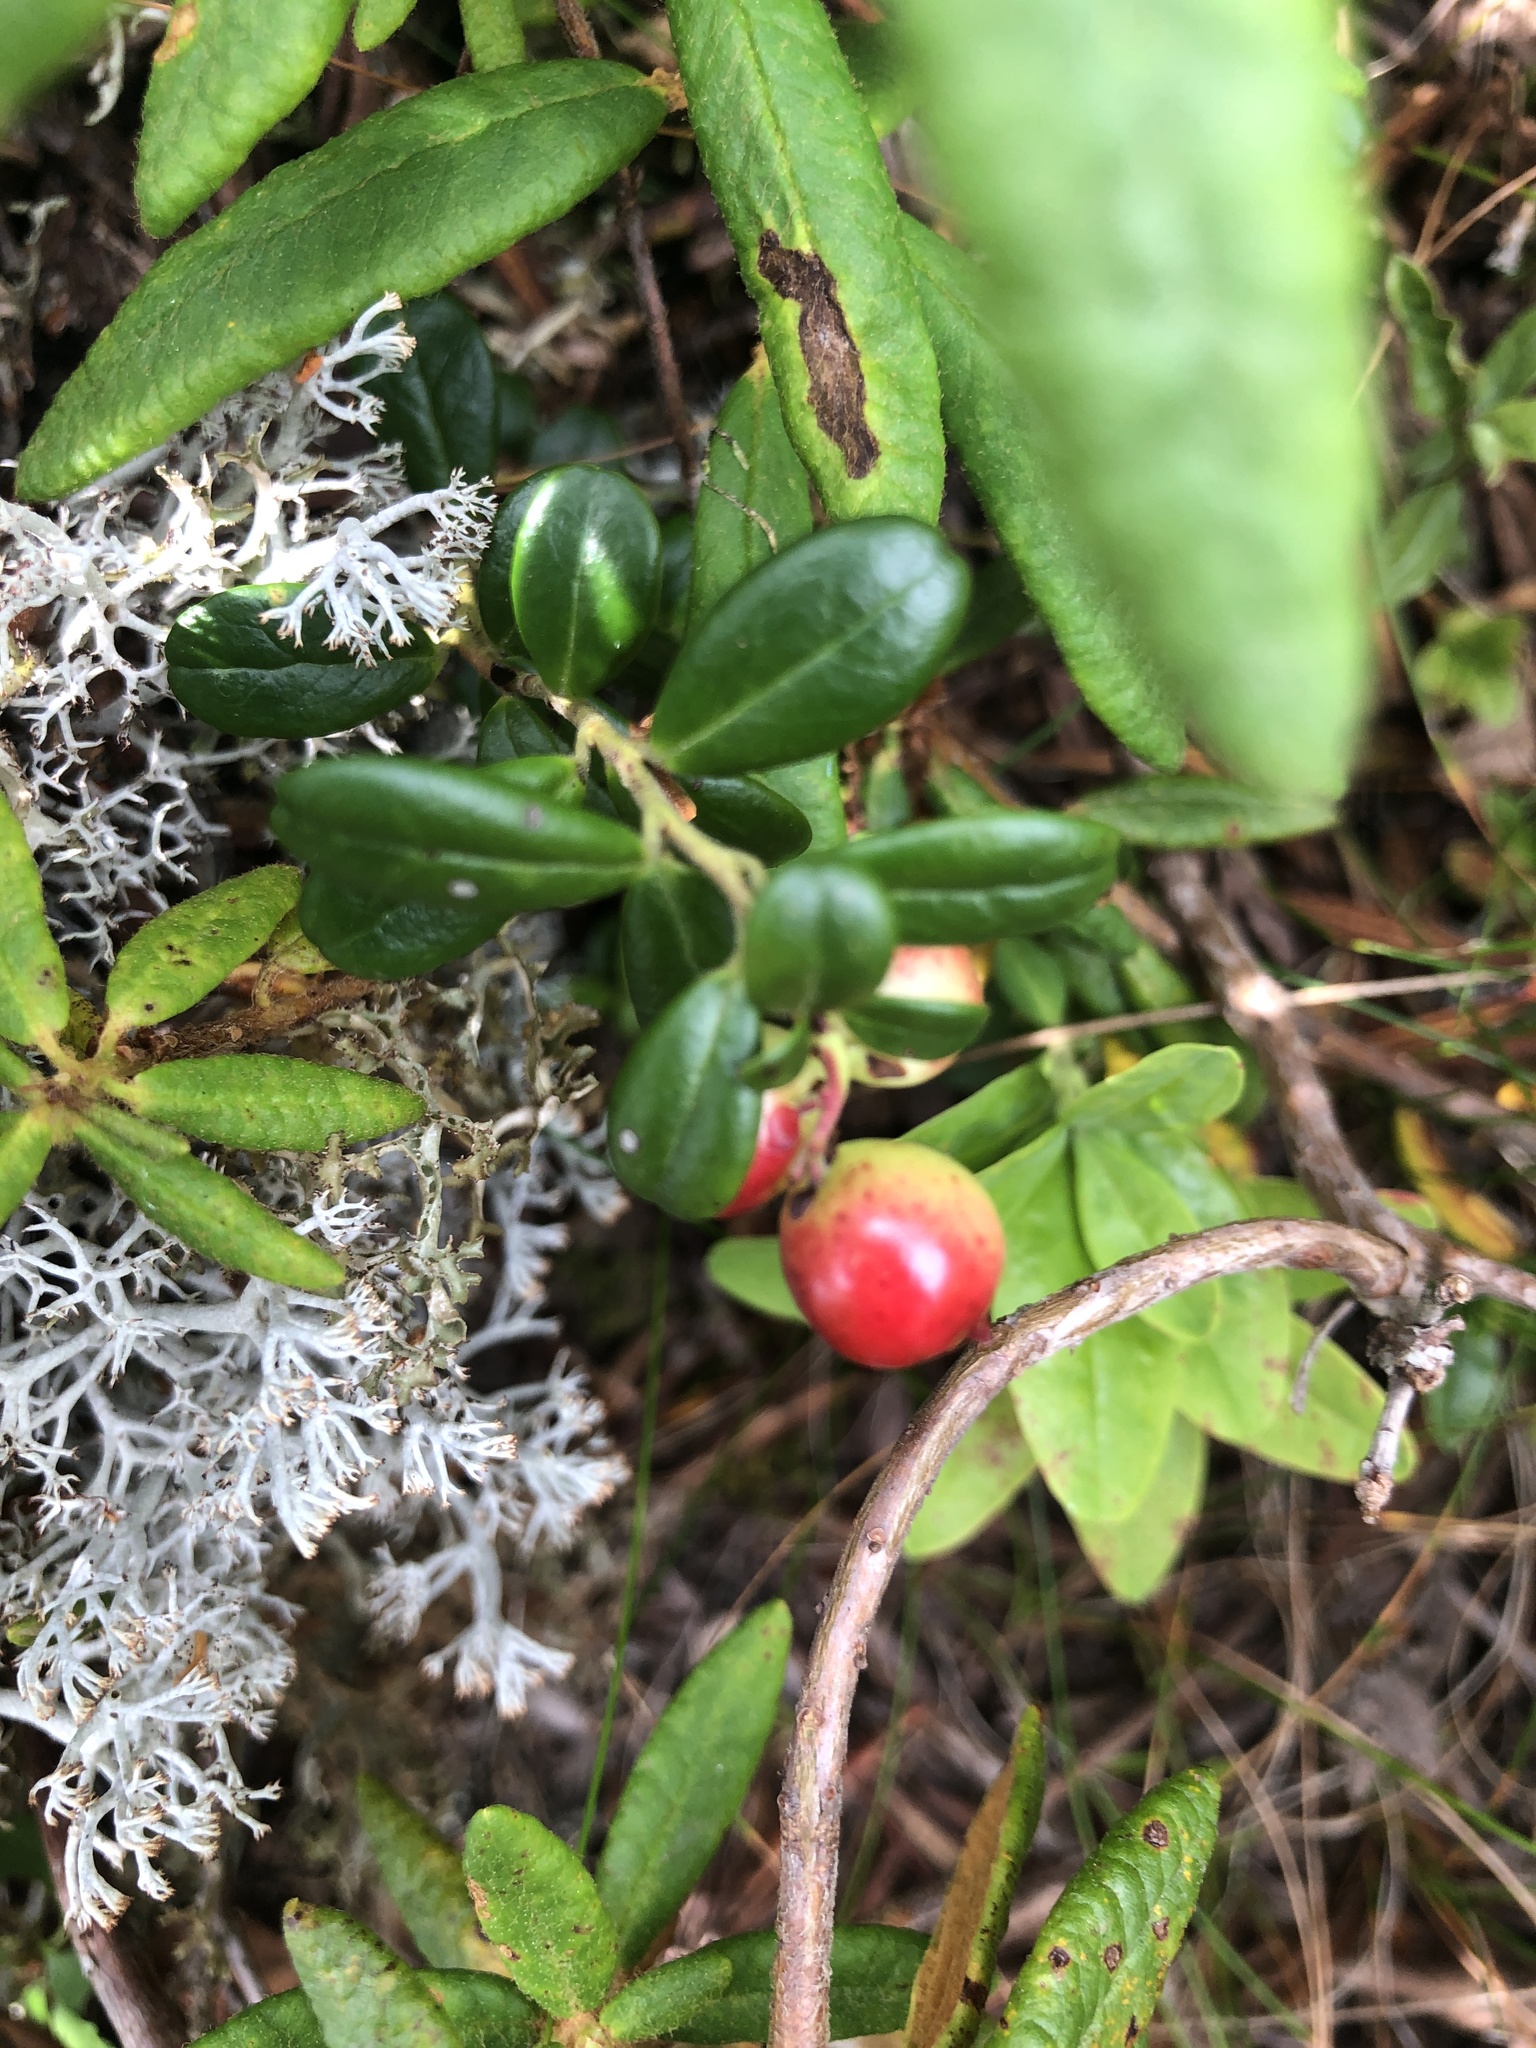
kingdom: Plantae
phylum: Tracheophyta
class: Magnoliopsida
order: Ericales
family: Ericaceae
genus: Vaccinium
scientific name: Vaccinium vitis-idaea
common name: Cowberry
